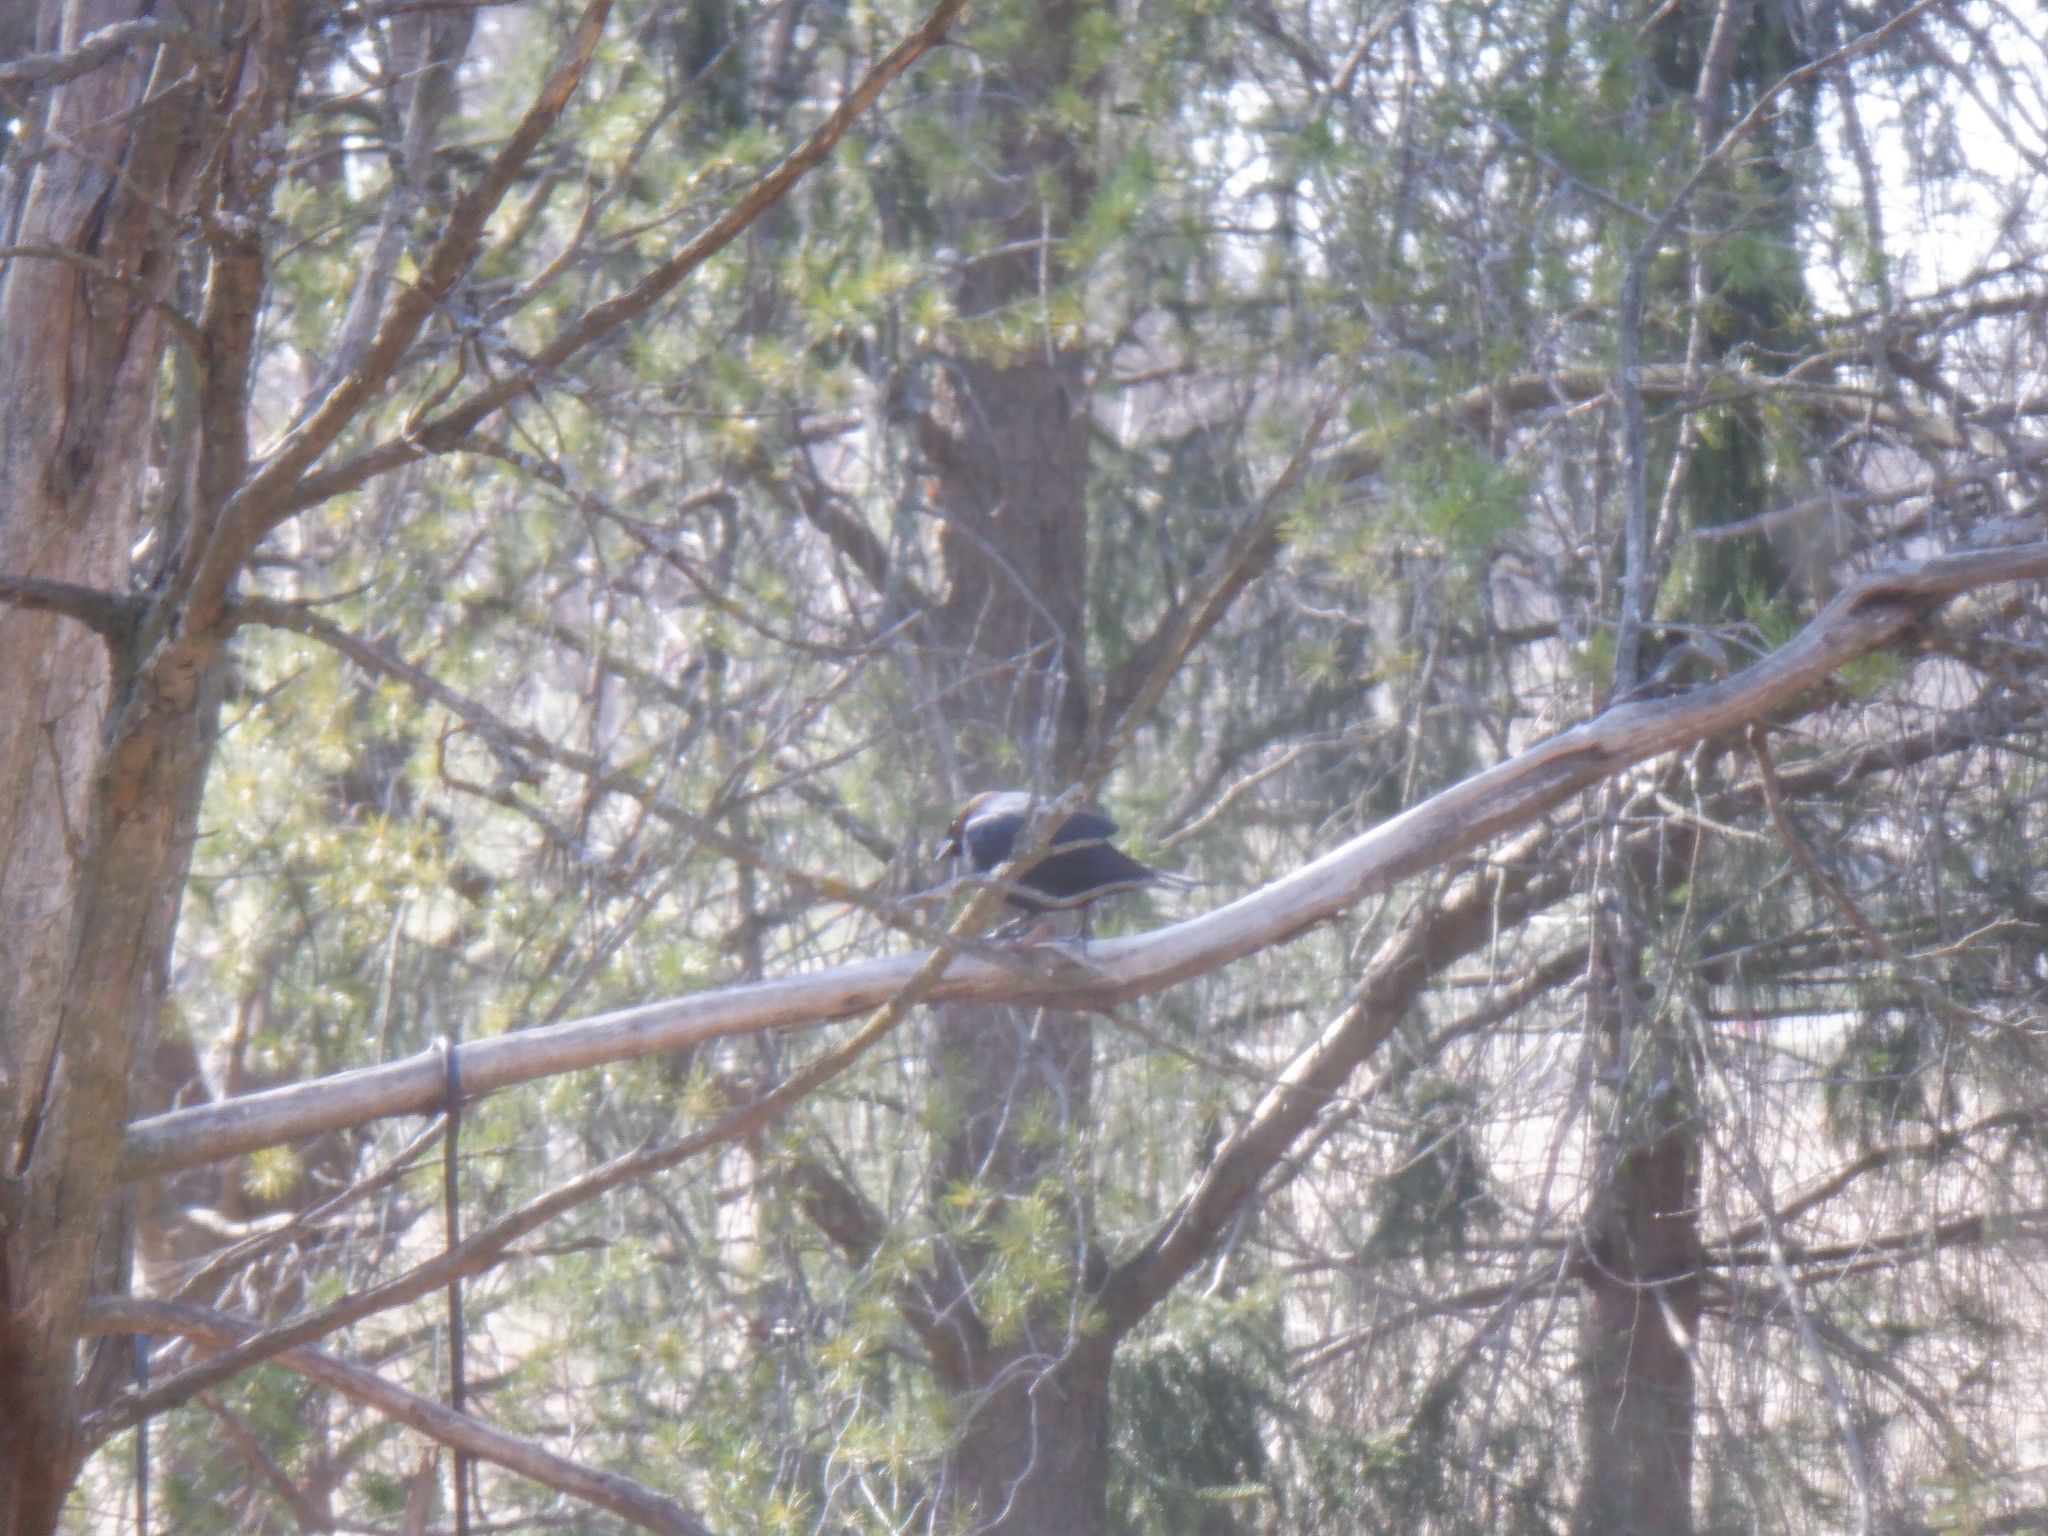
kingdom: Animalia
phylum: Chordata
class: Aves
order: Passeriformes
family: Icteridae
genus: Molothrus
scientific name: Molothrus ater
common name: Brown-headed cowbird
